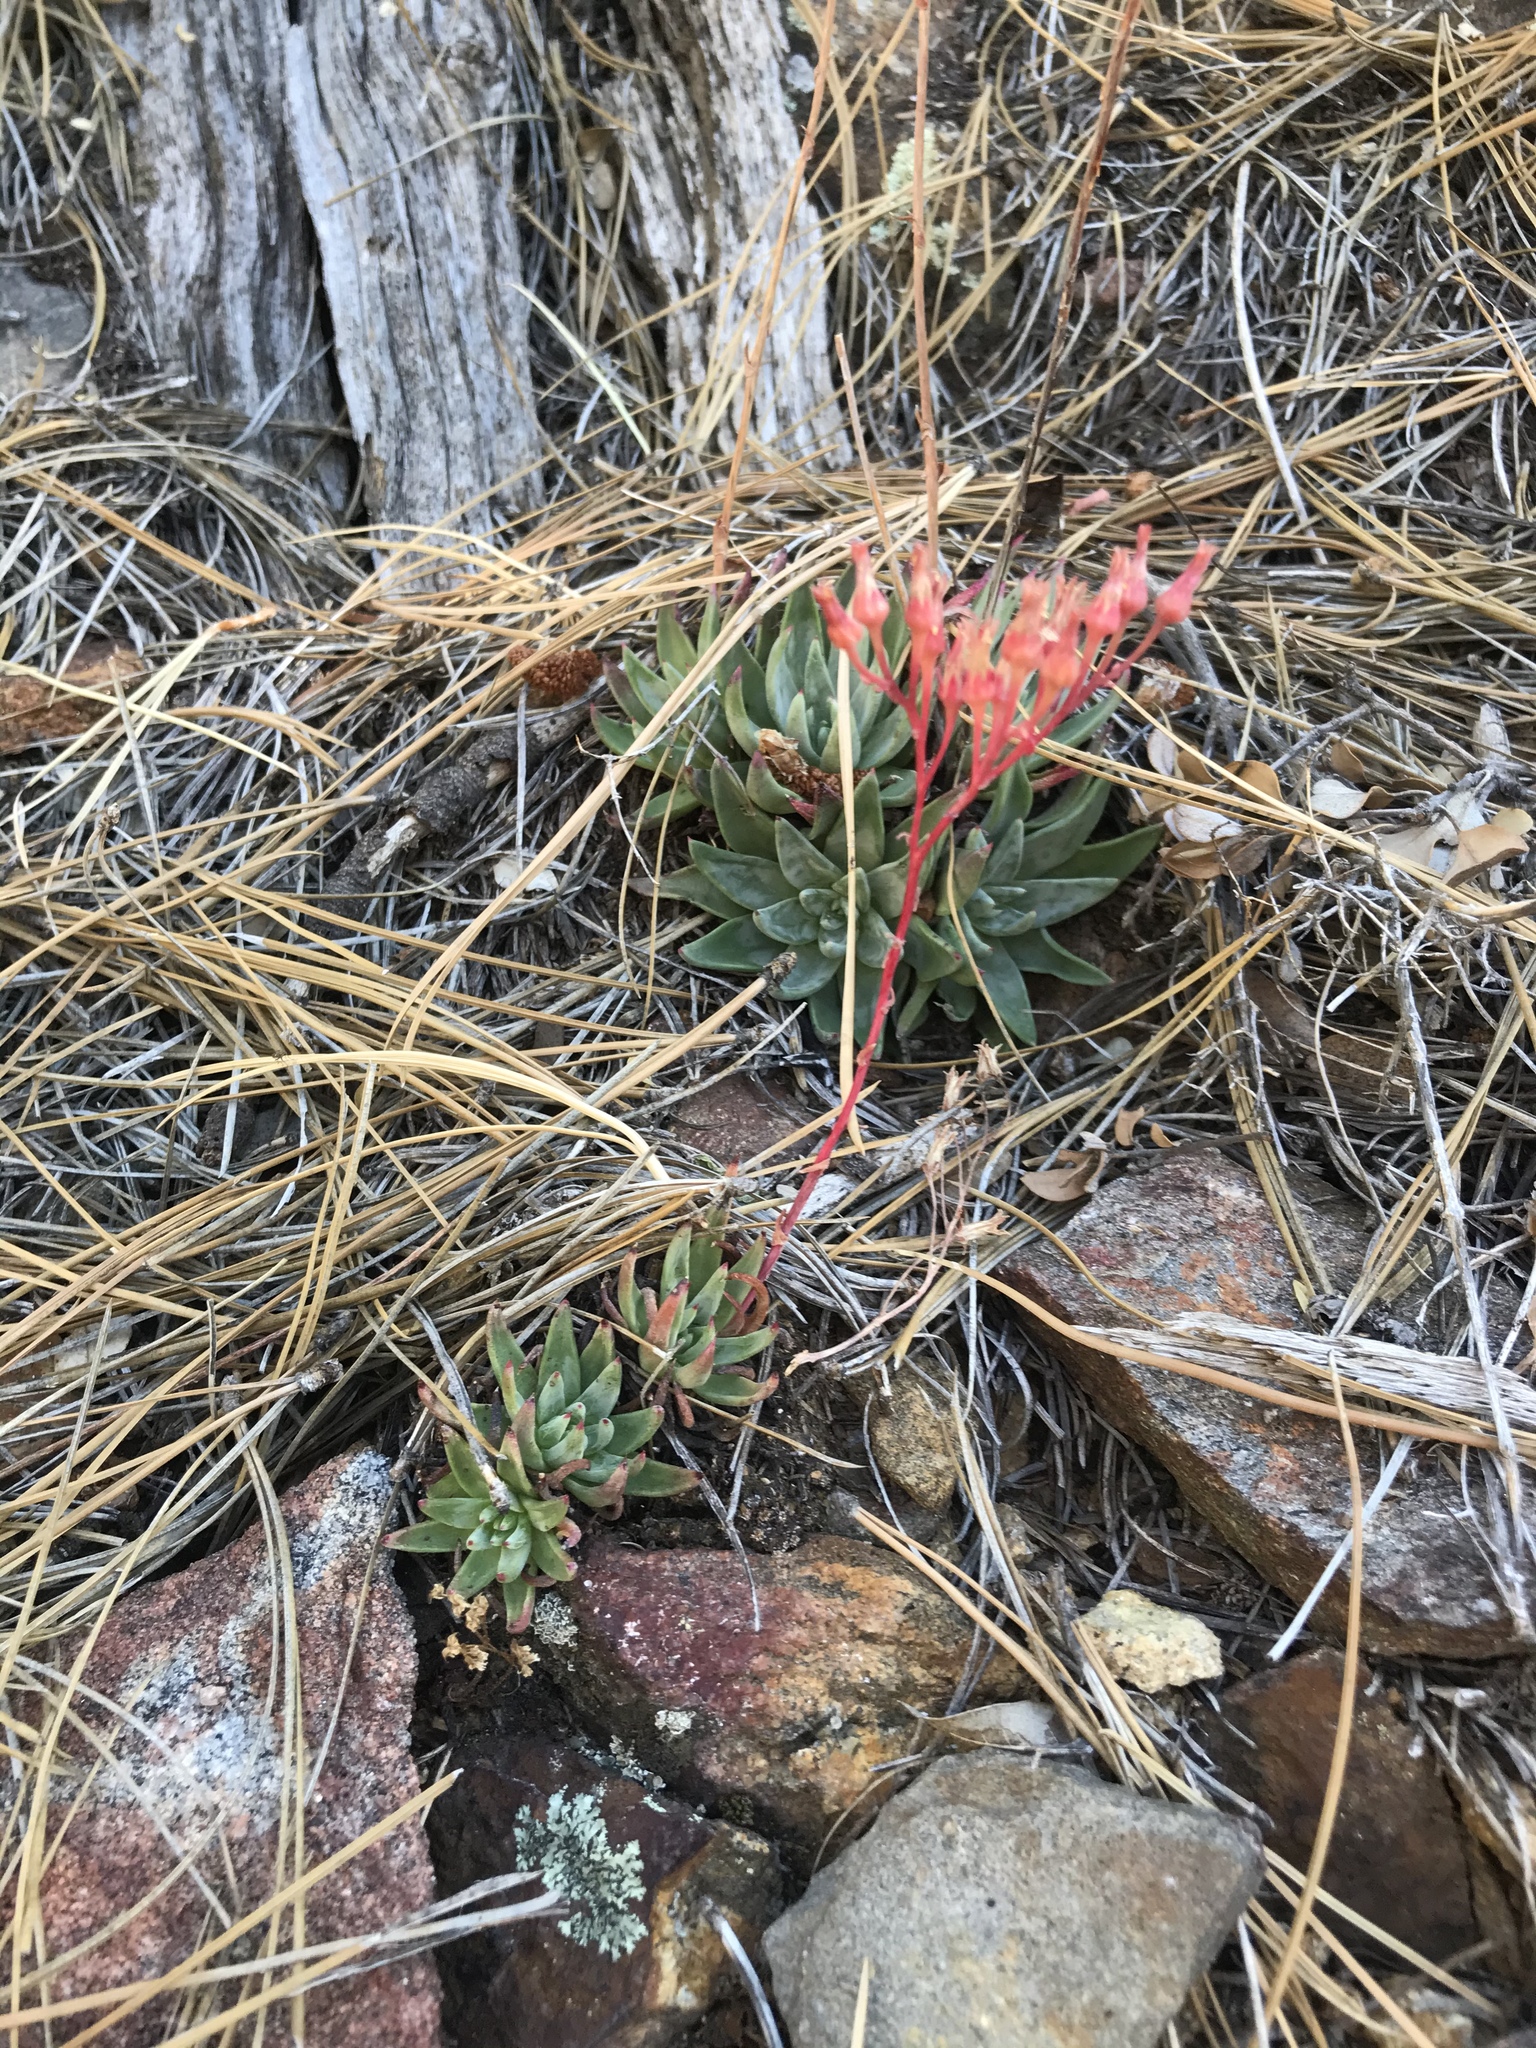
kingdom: Plantae
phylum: Tracheophyta
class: Magnoliopsida
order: Saxifragales
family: Crassulaceae
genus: Dudleya
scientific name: Dudleya pauciflora
